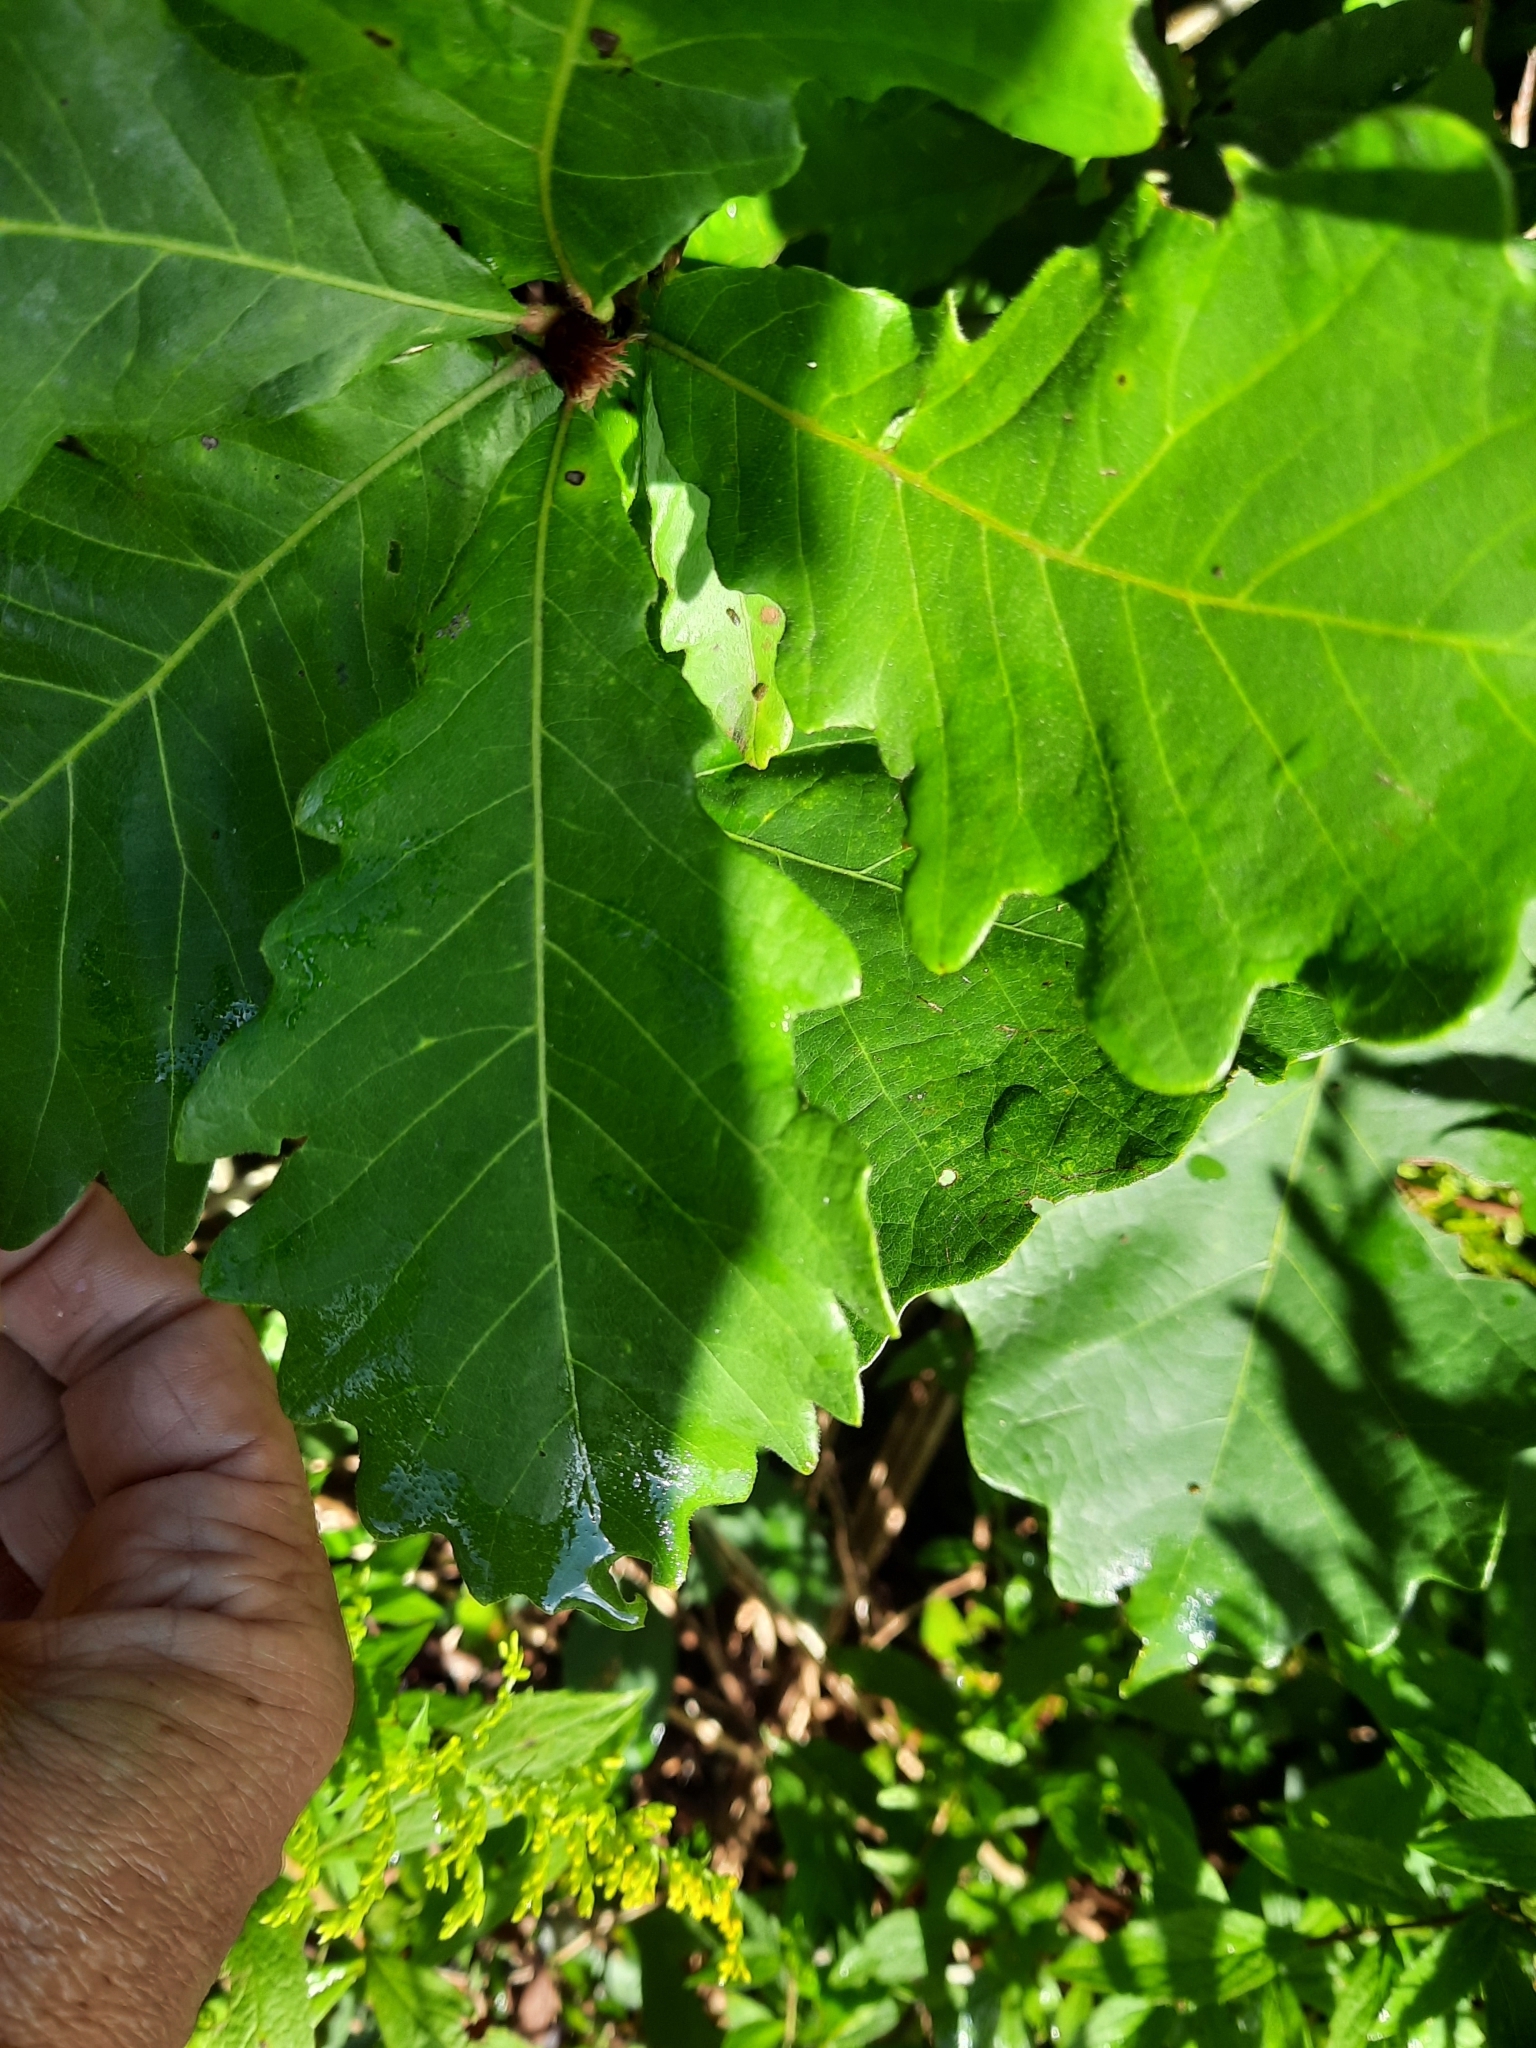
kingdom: Plantae
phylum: Tracheophyta
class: Magnoliopsida
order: Fagales
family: Fagaceae
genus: Quercus
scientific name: Quercus bicolor
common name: Swamp white oak
